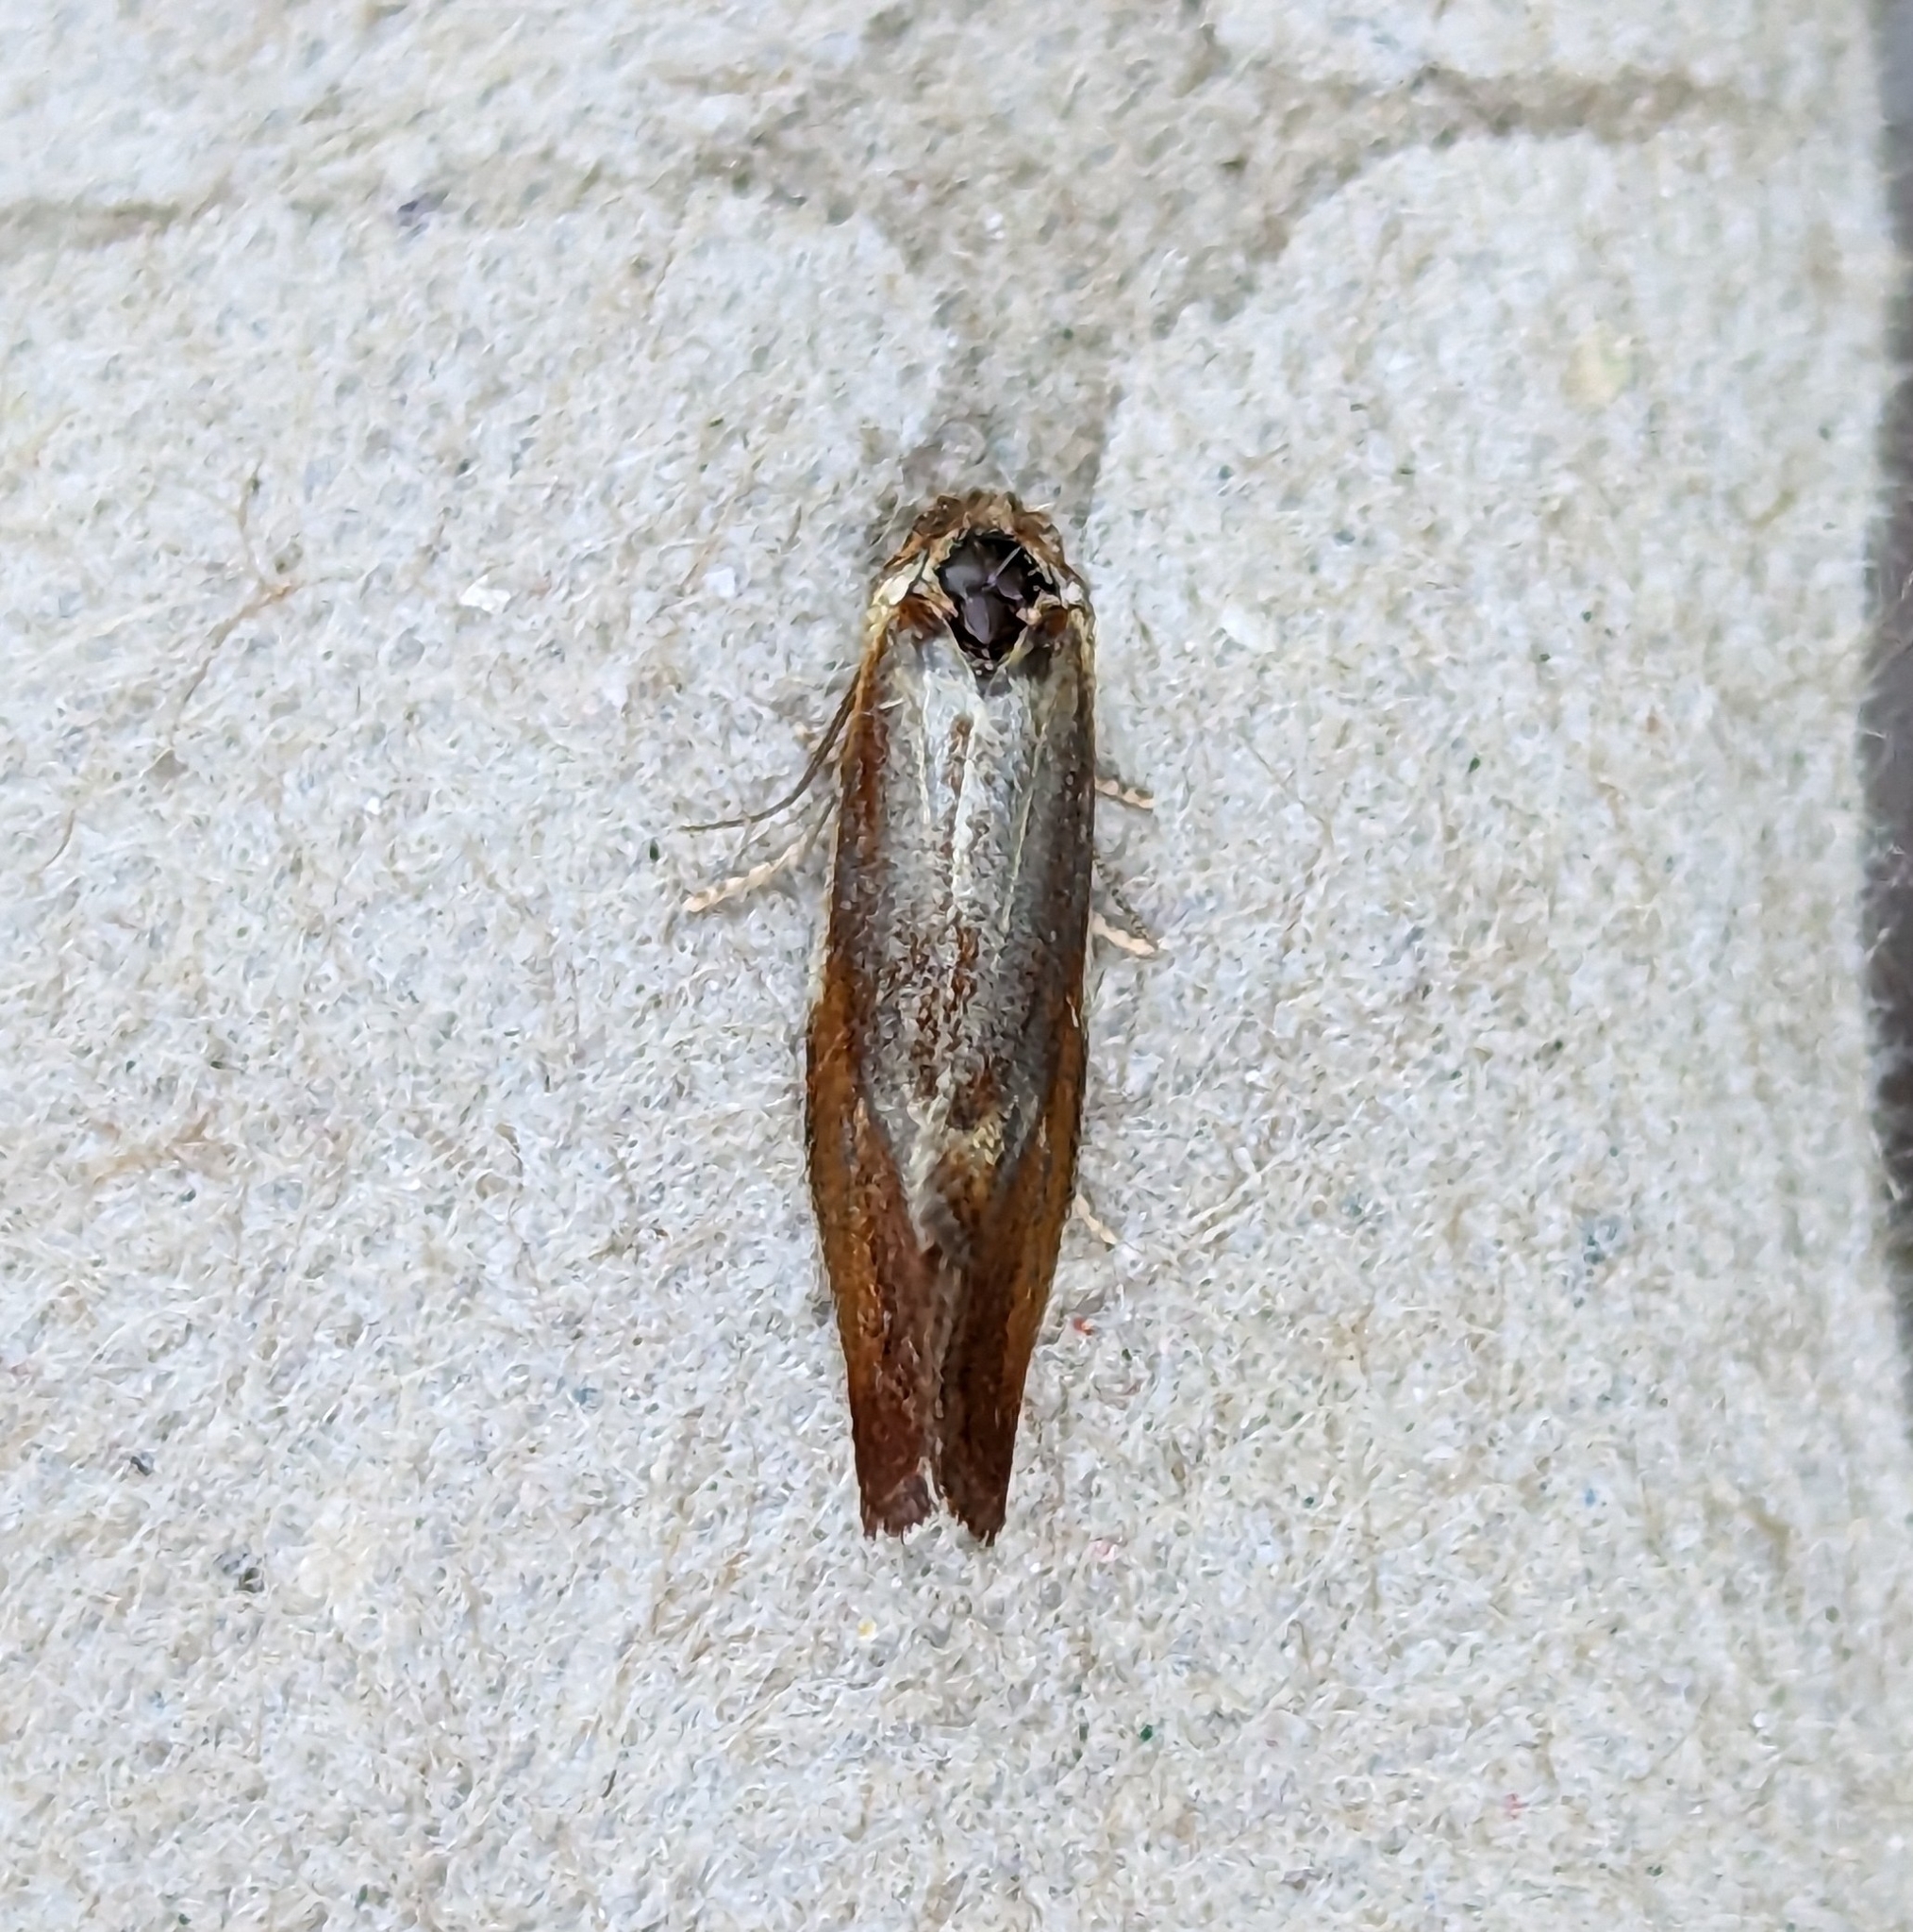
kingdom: Animalia
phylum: Arthropoda
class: Insecta
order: Lepidoptera
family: Tortricidae
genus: Eulia
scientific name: Eulia ministrana
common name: Brassy twist
